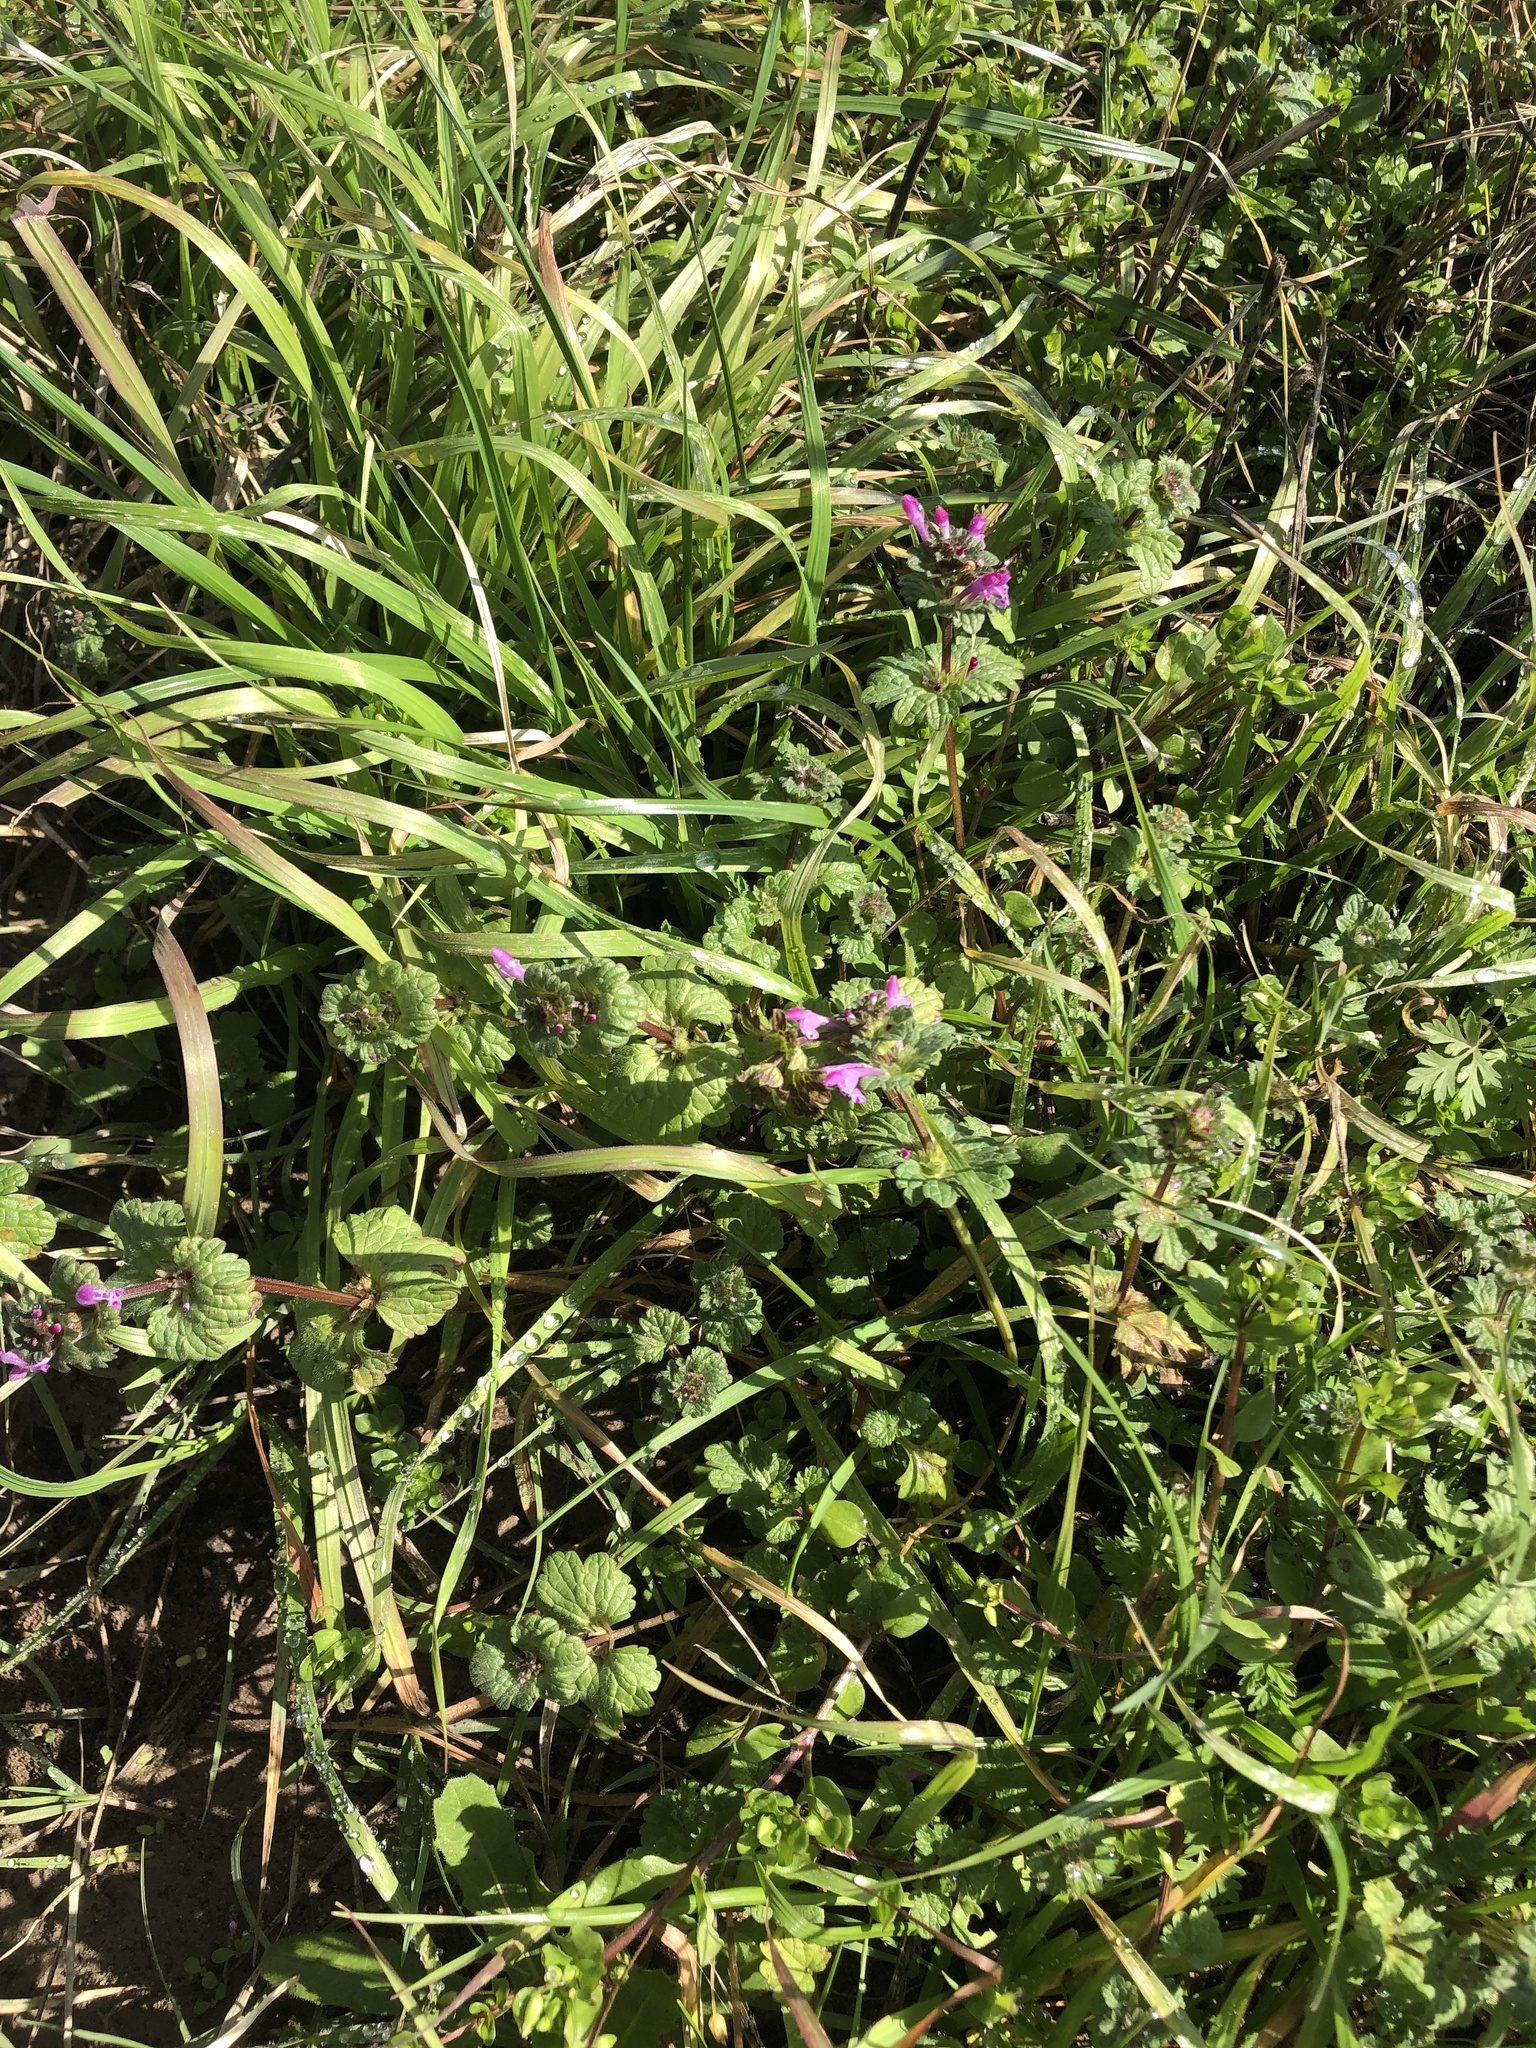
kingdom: Plantae
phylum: Tracheophyta
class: Magnoliopsida
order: Lamiales
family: Lamiaceae
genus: Lamium
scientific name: Lamium amplexicaule
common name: Henbit dead-nettle
